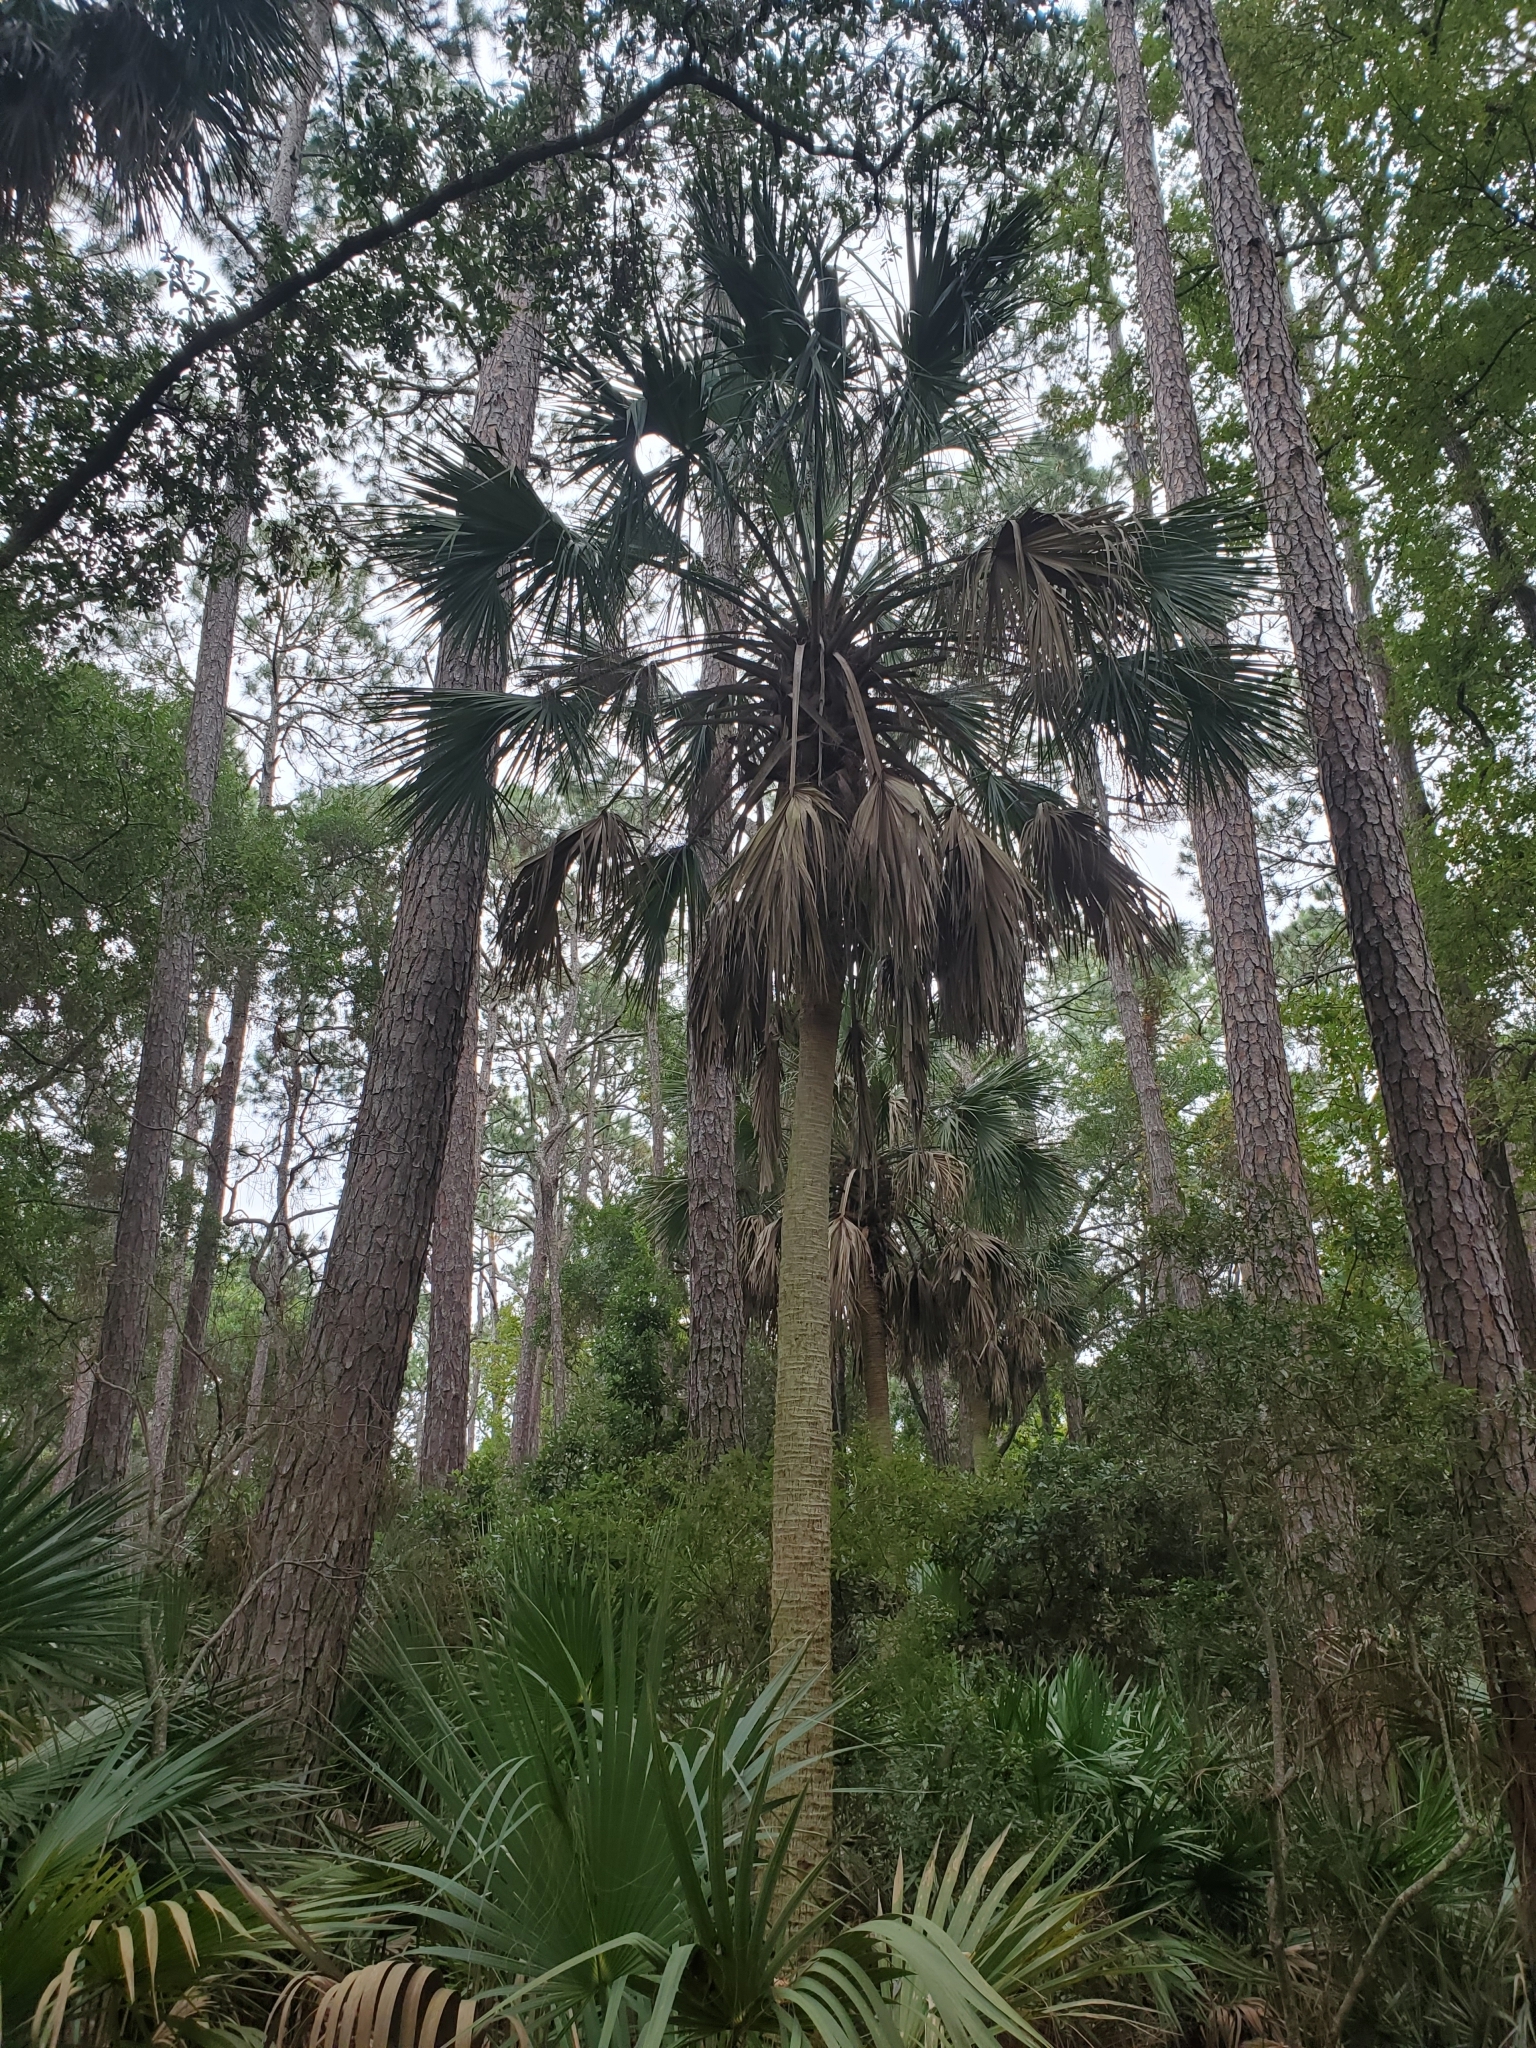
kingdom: Plantae
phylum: Tracheophyta
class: Liliopsida
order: Arecales
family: Arecaceae
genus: Sabal
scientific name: Sabal palmetto
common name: Blue palmetto
